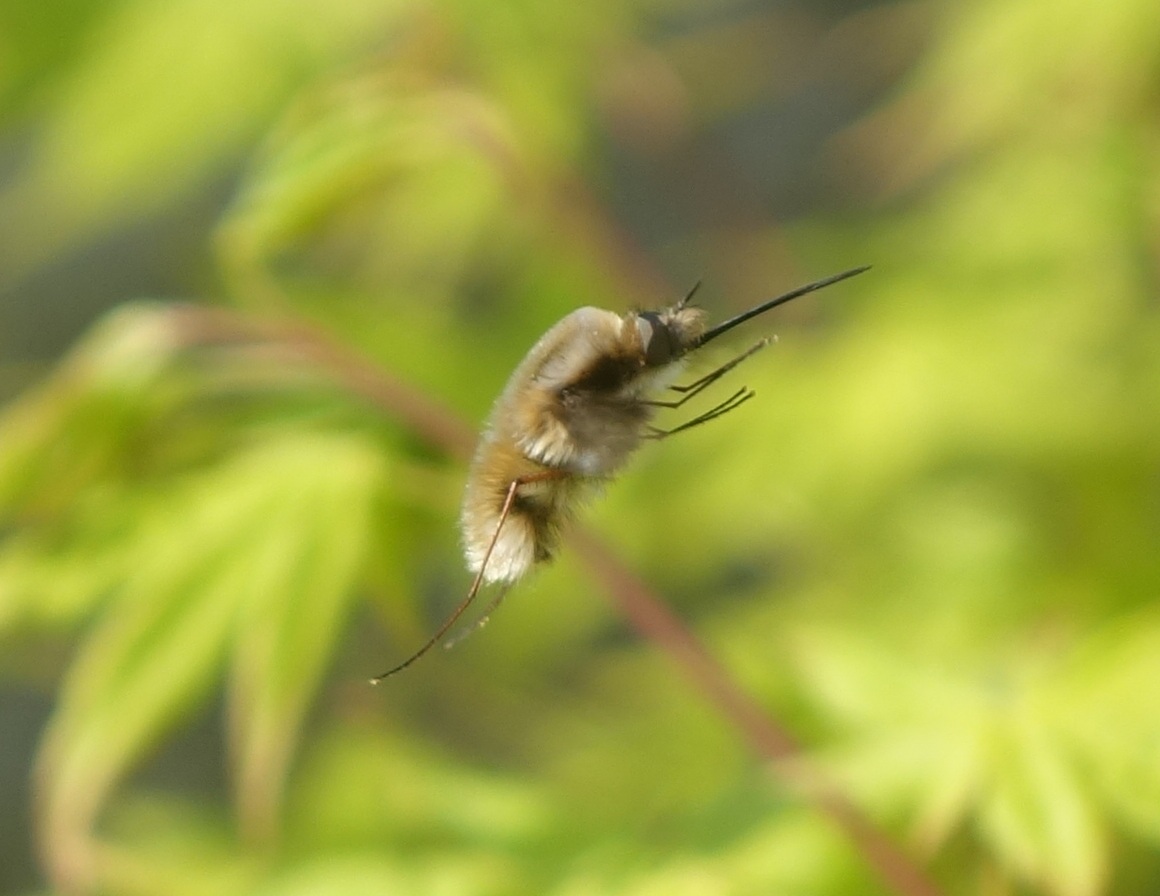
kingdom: Animalia
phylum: Arthropoda
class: Insecta
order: Diptera
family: Bombyliidae
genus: Bombylius
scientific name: Bombylius major
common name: Bee fly
